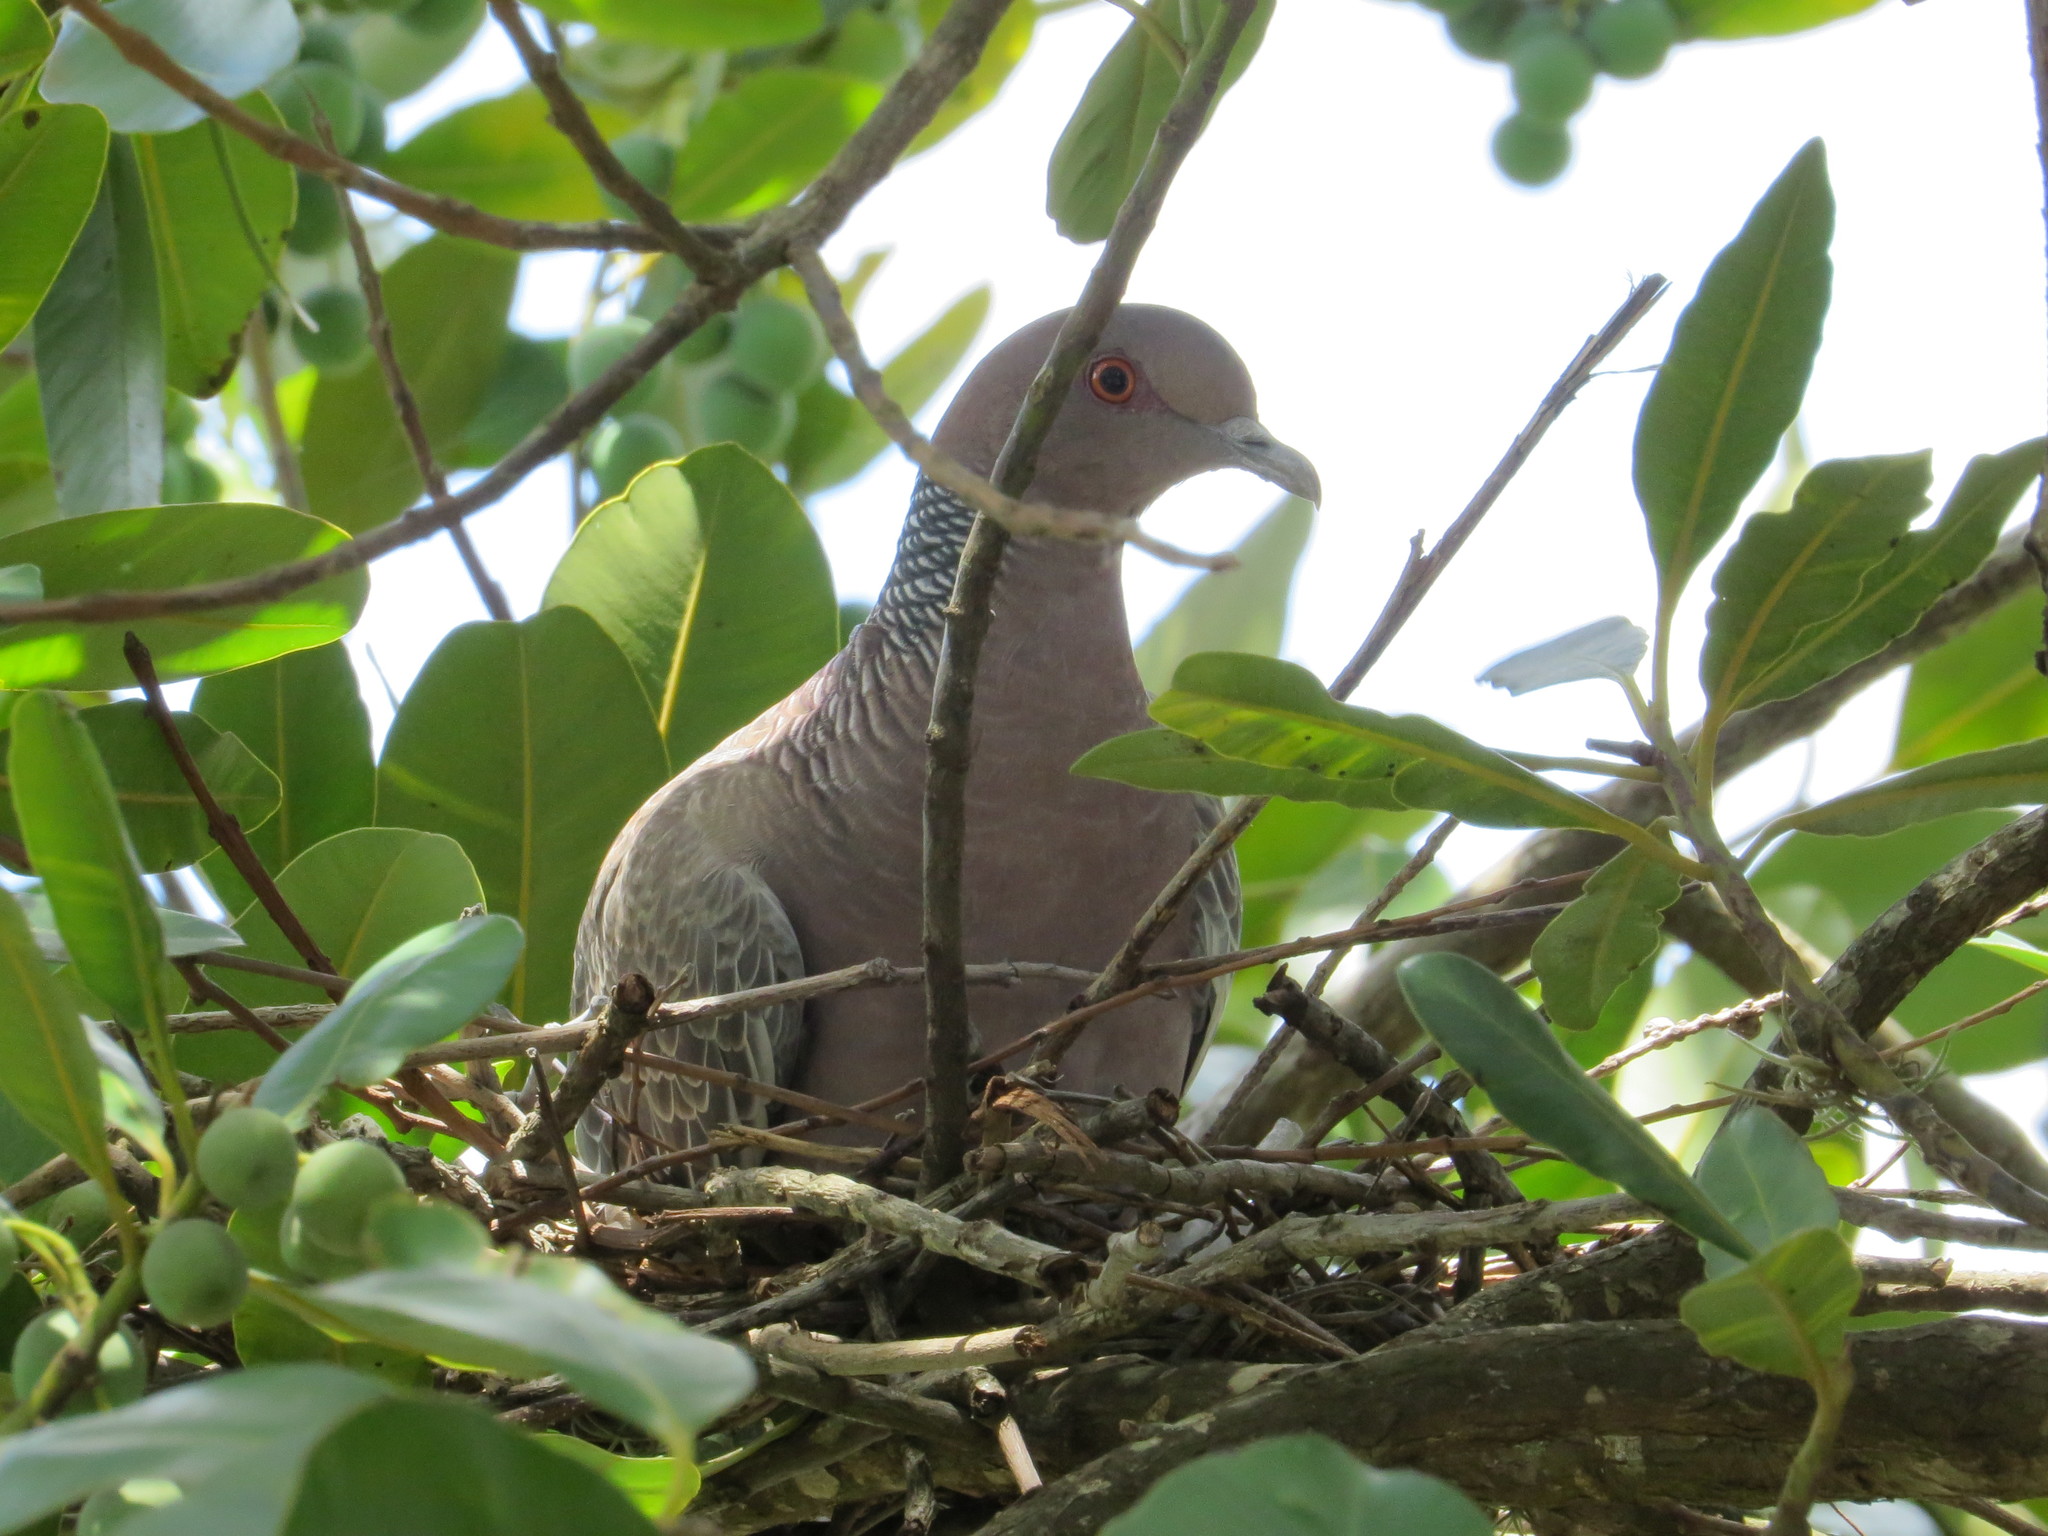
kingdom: Animalia
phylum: Chordata
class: Aves
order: Columbiformes
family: Columbidae
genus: Patagioenas
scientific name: Patagioenas picazuro
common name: Picazuro pigeon
